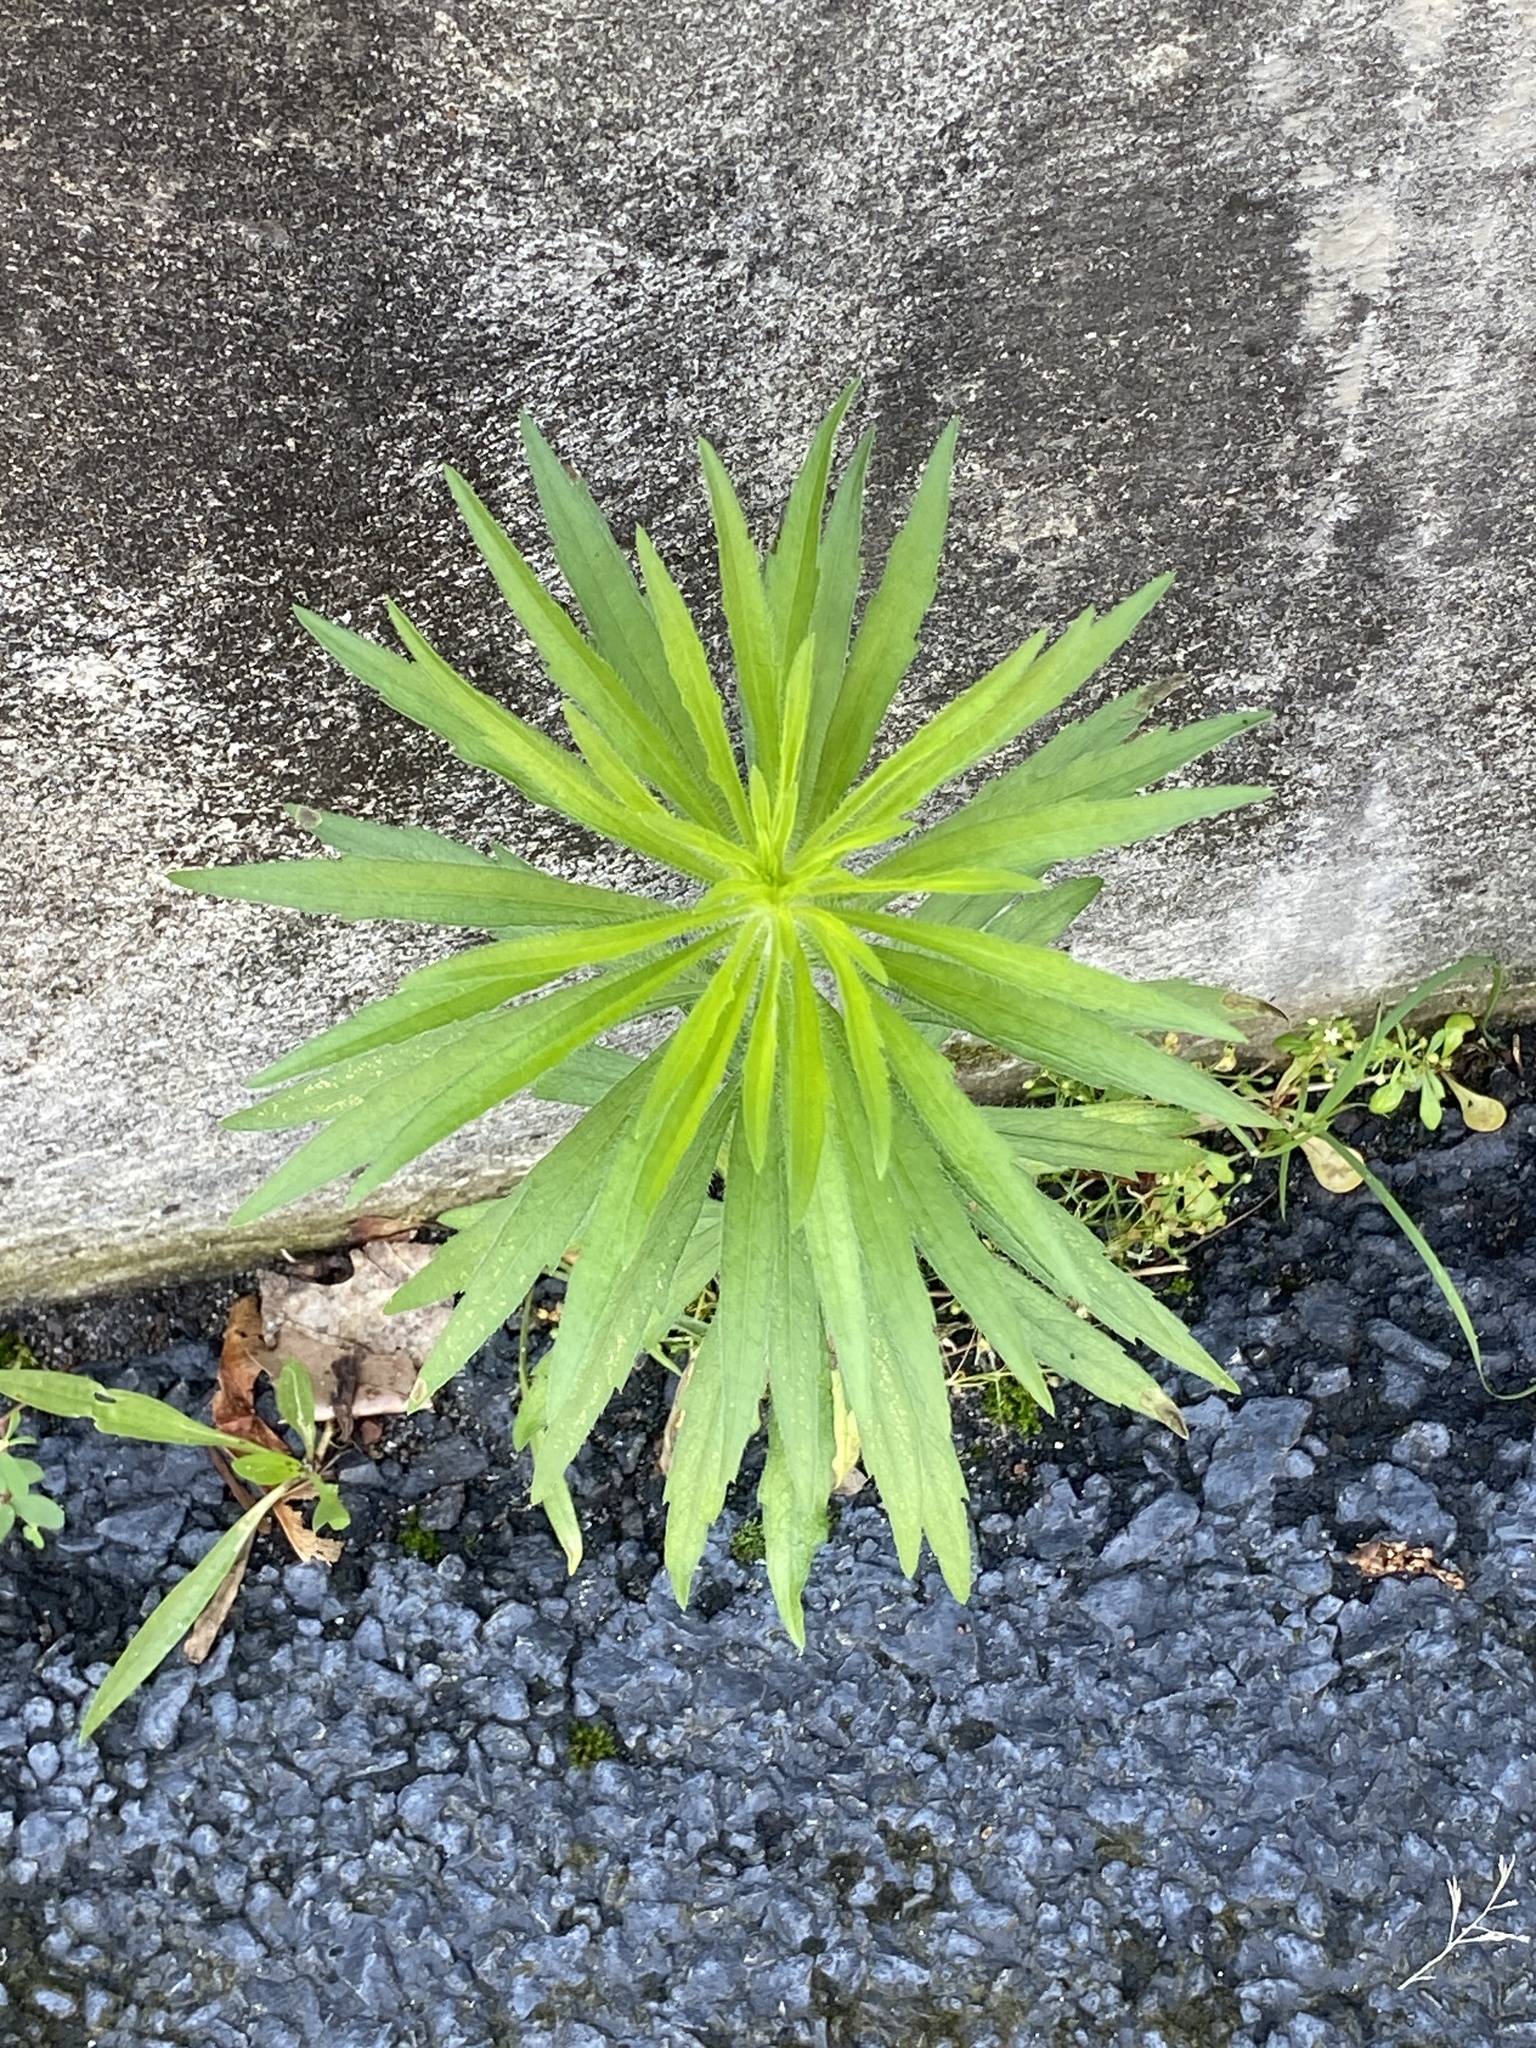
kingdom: Plantae
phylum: Tracheophyta
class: Magnoliopsida
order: Asterales
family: Asteraceae
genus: Erigeron
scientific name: Erigeron canadensis
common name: Canadian fleabane
